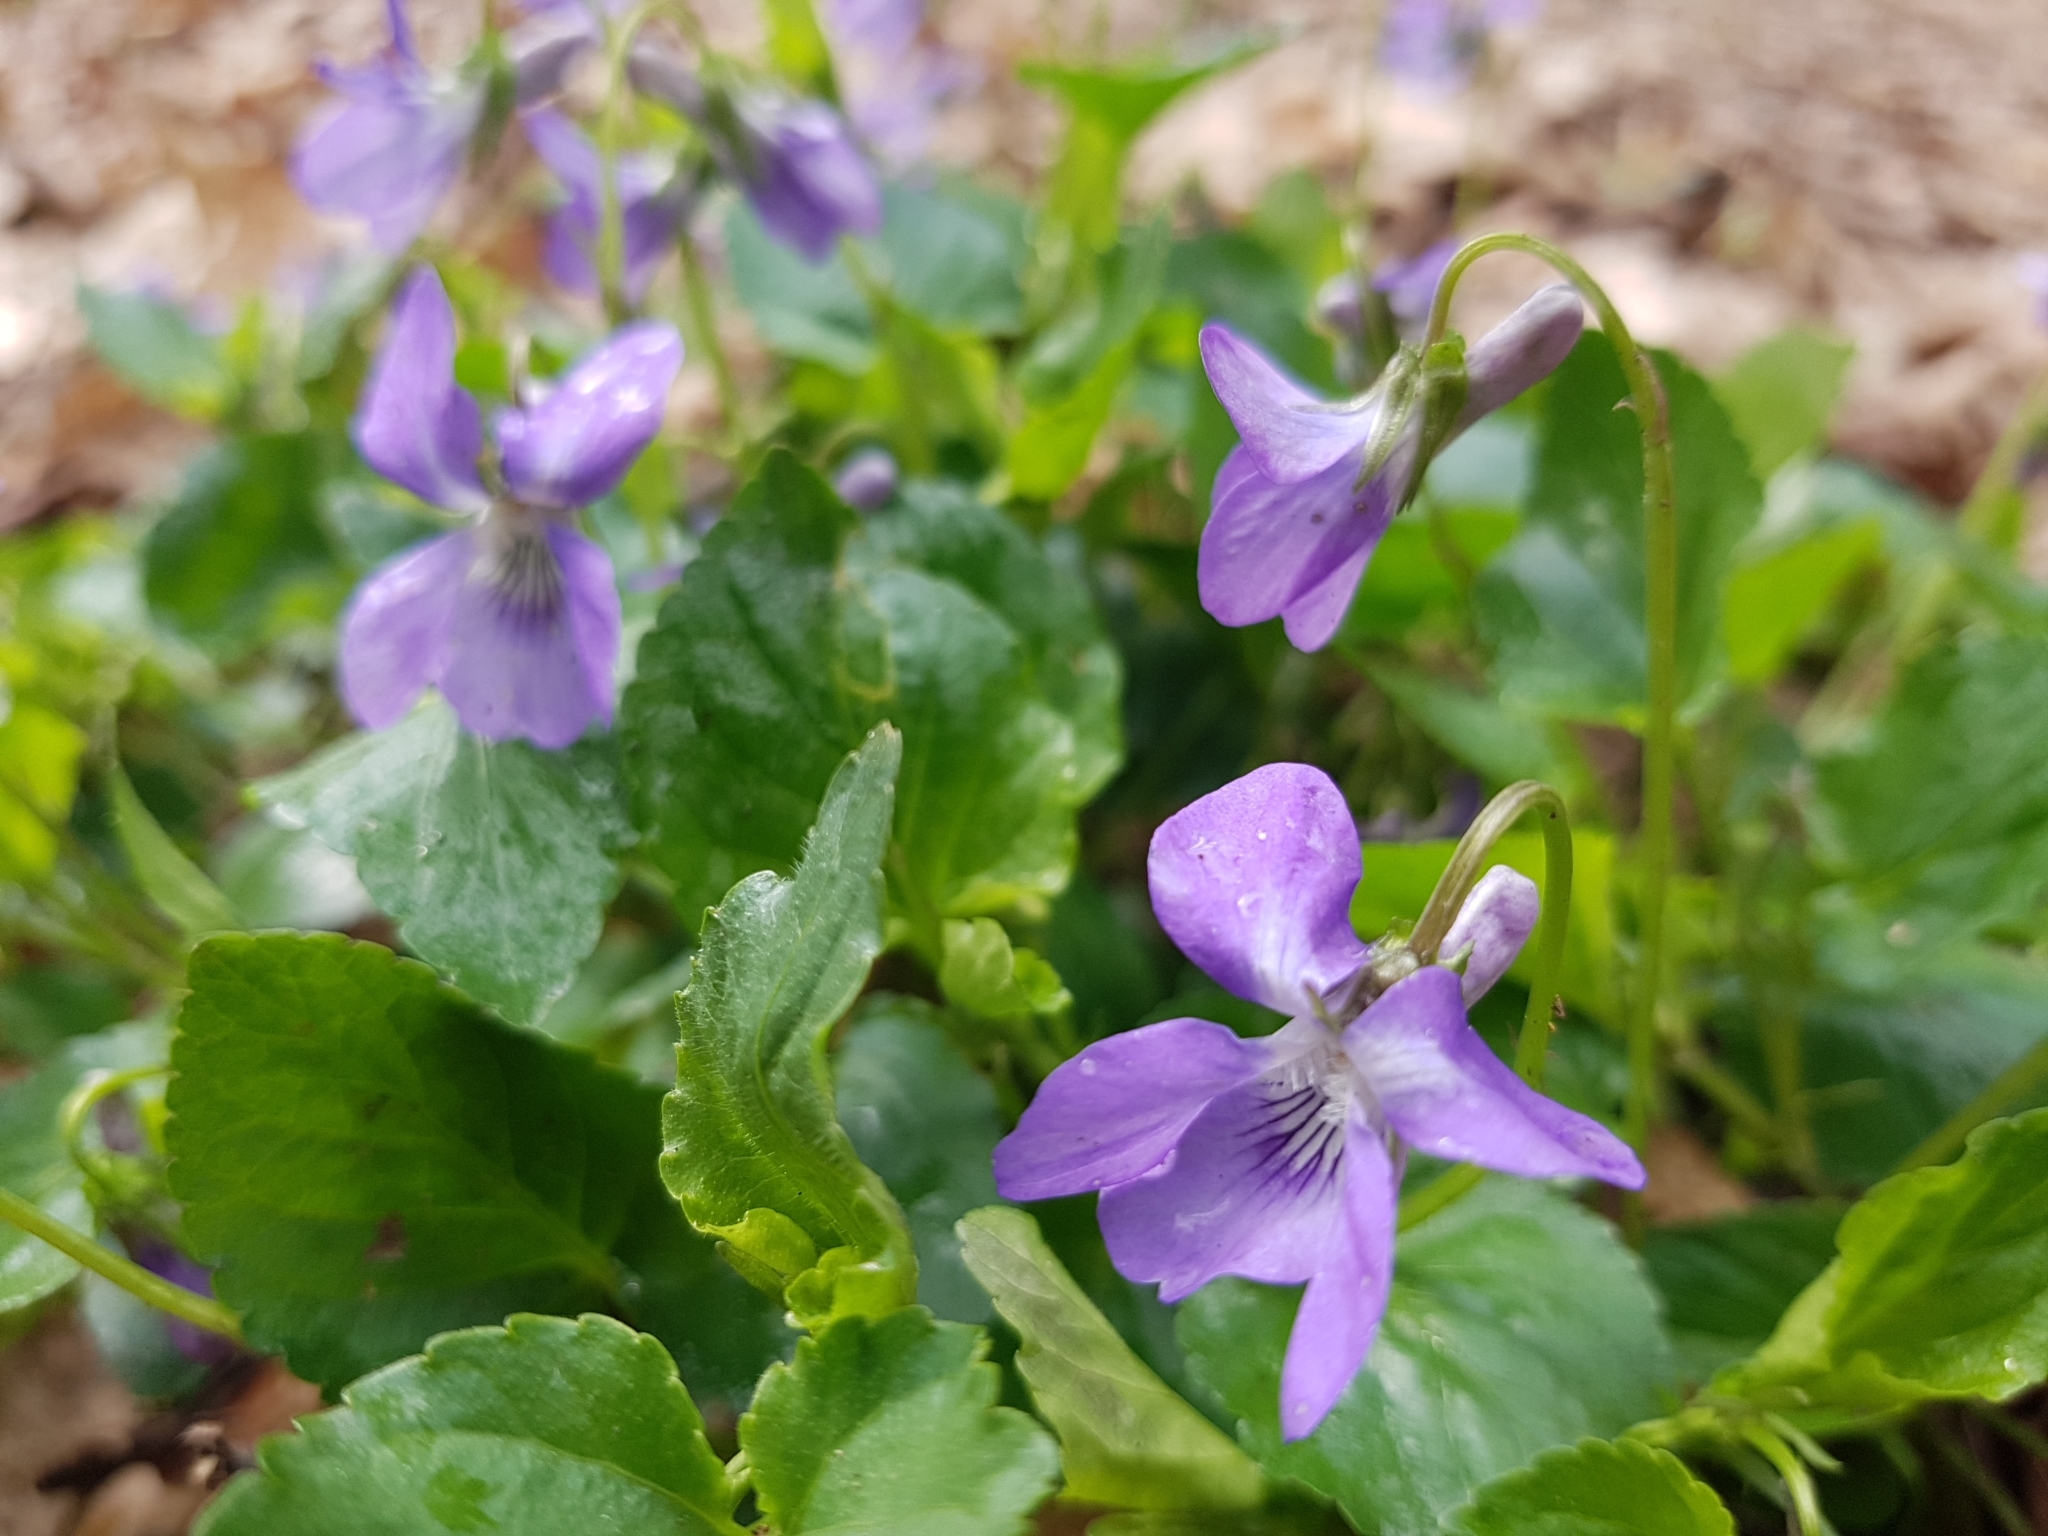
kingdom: Plantae
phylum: Tracheophyta
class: Magnoliopsida
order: Malpighiales
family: Violaceae
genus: Viola
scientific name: Viola reichenbachiana
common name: Early dog-violet
